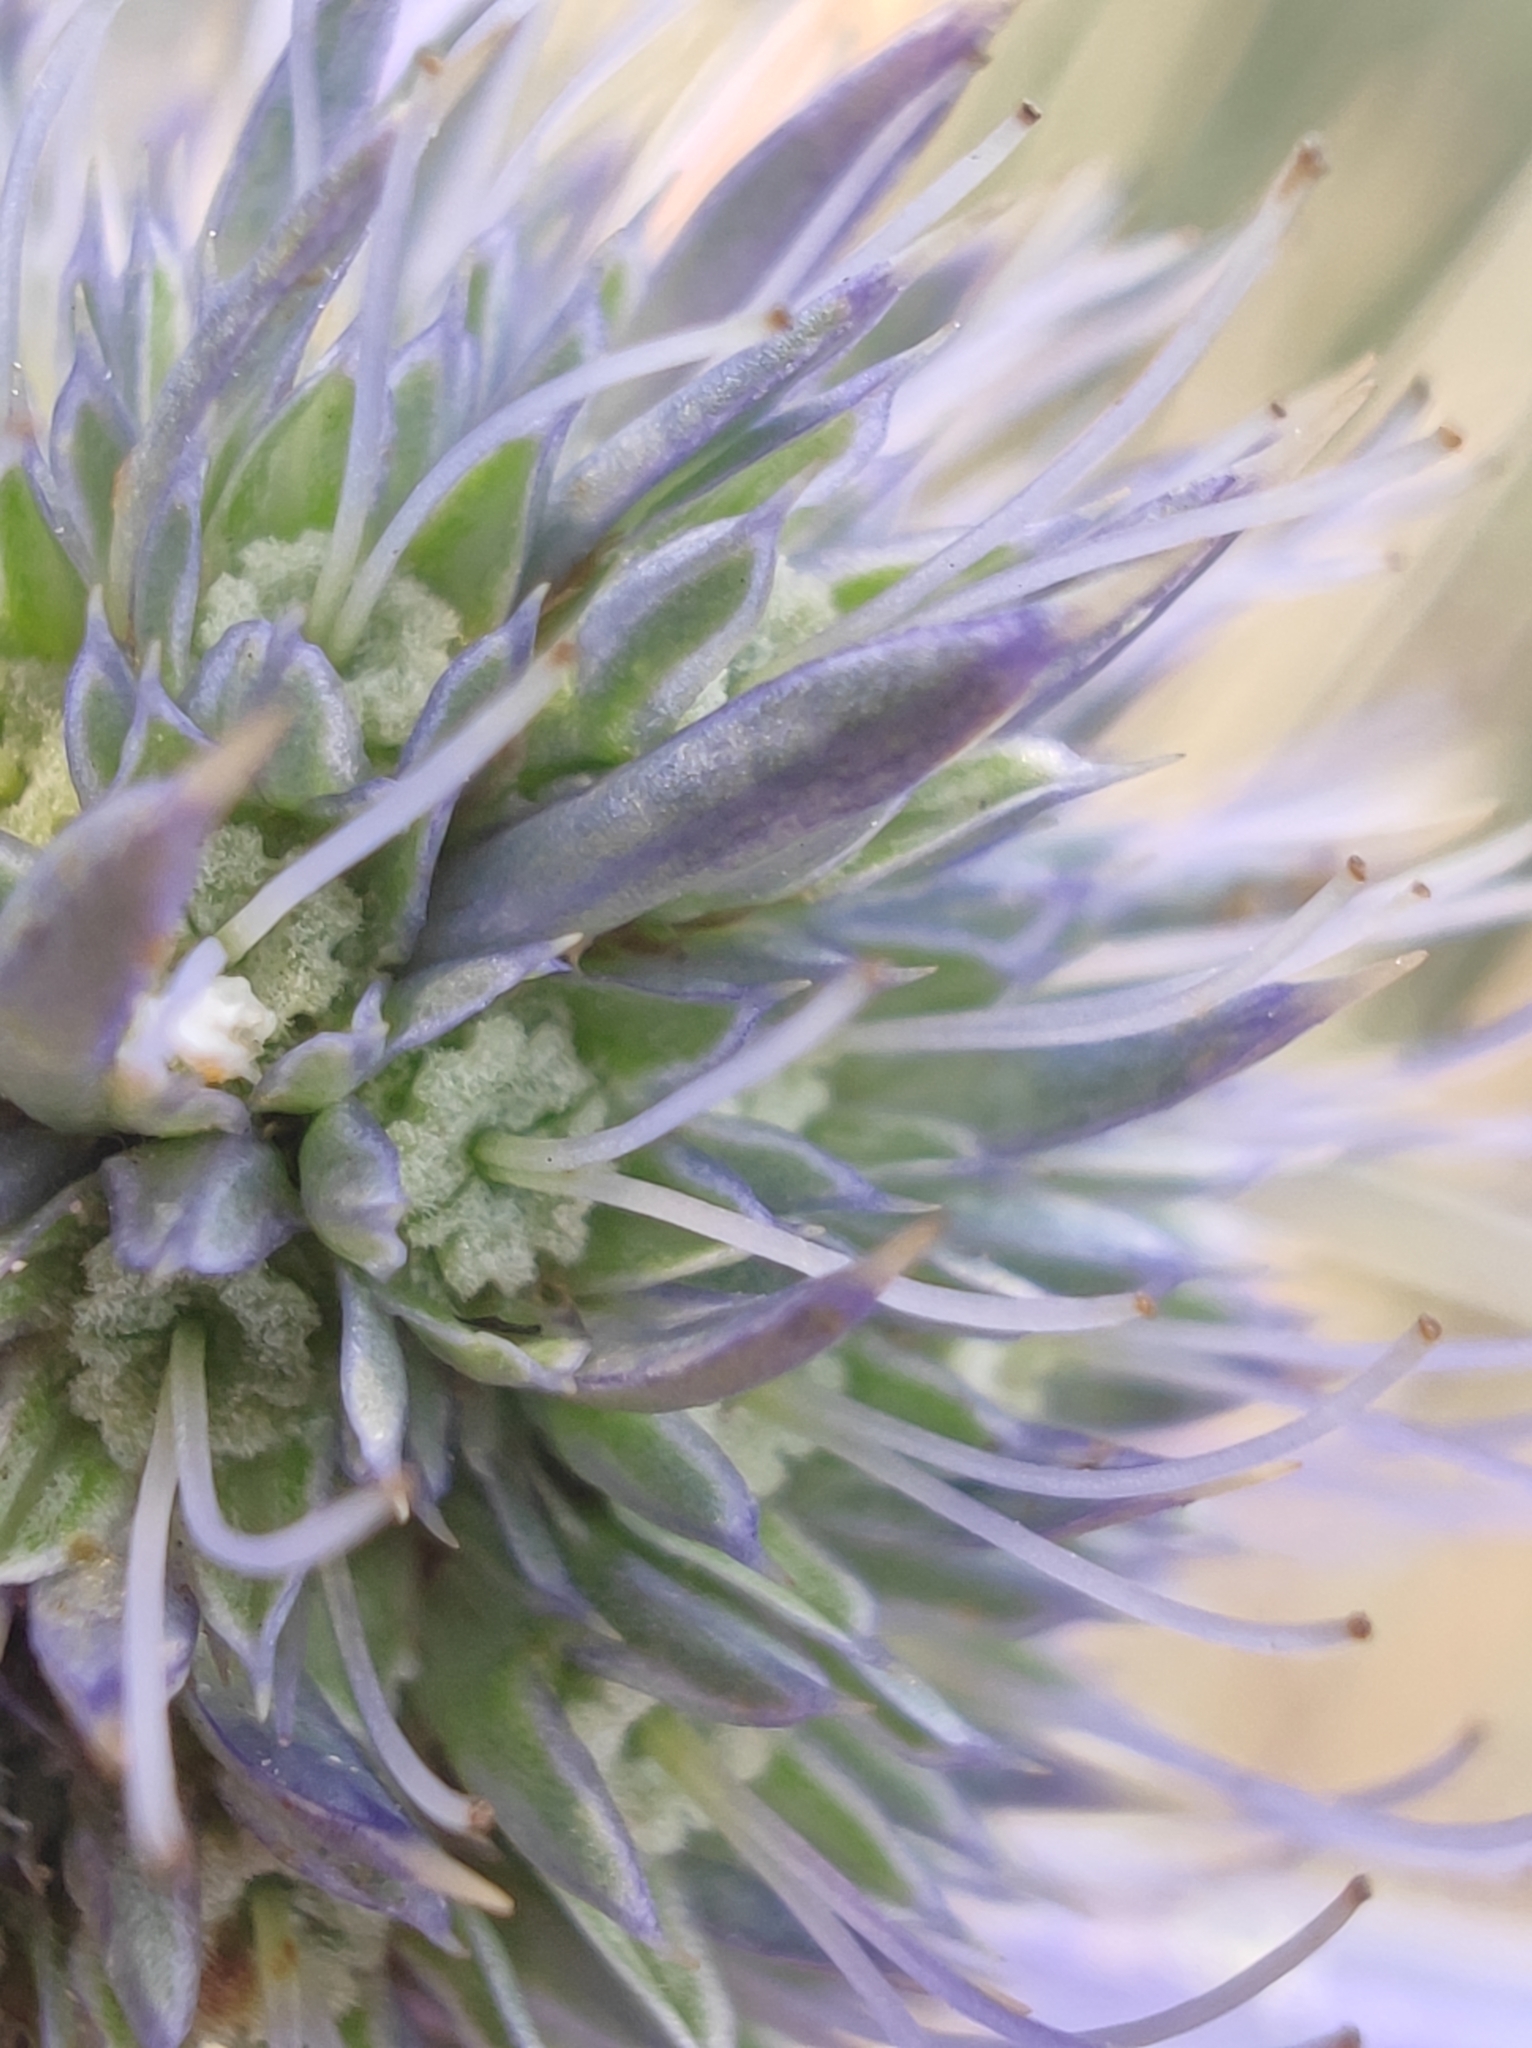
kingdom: Plantae
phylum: Tracheophyta
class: Magnoliopsida
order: Apiales
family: Apiaceae
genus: Eryngium
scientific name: Eryngium amethystinum
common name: Amethyst eryngo
